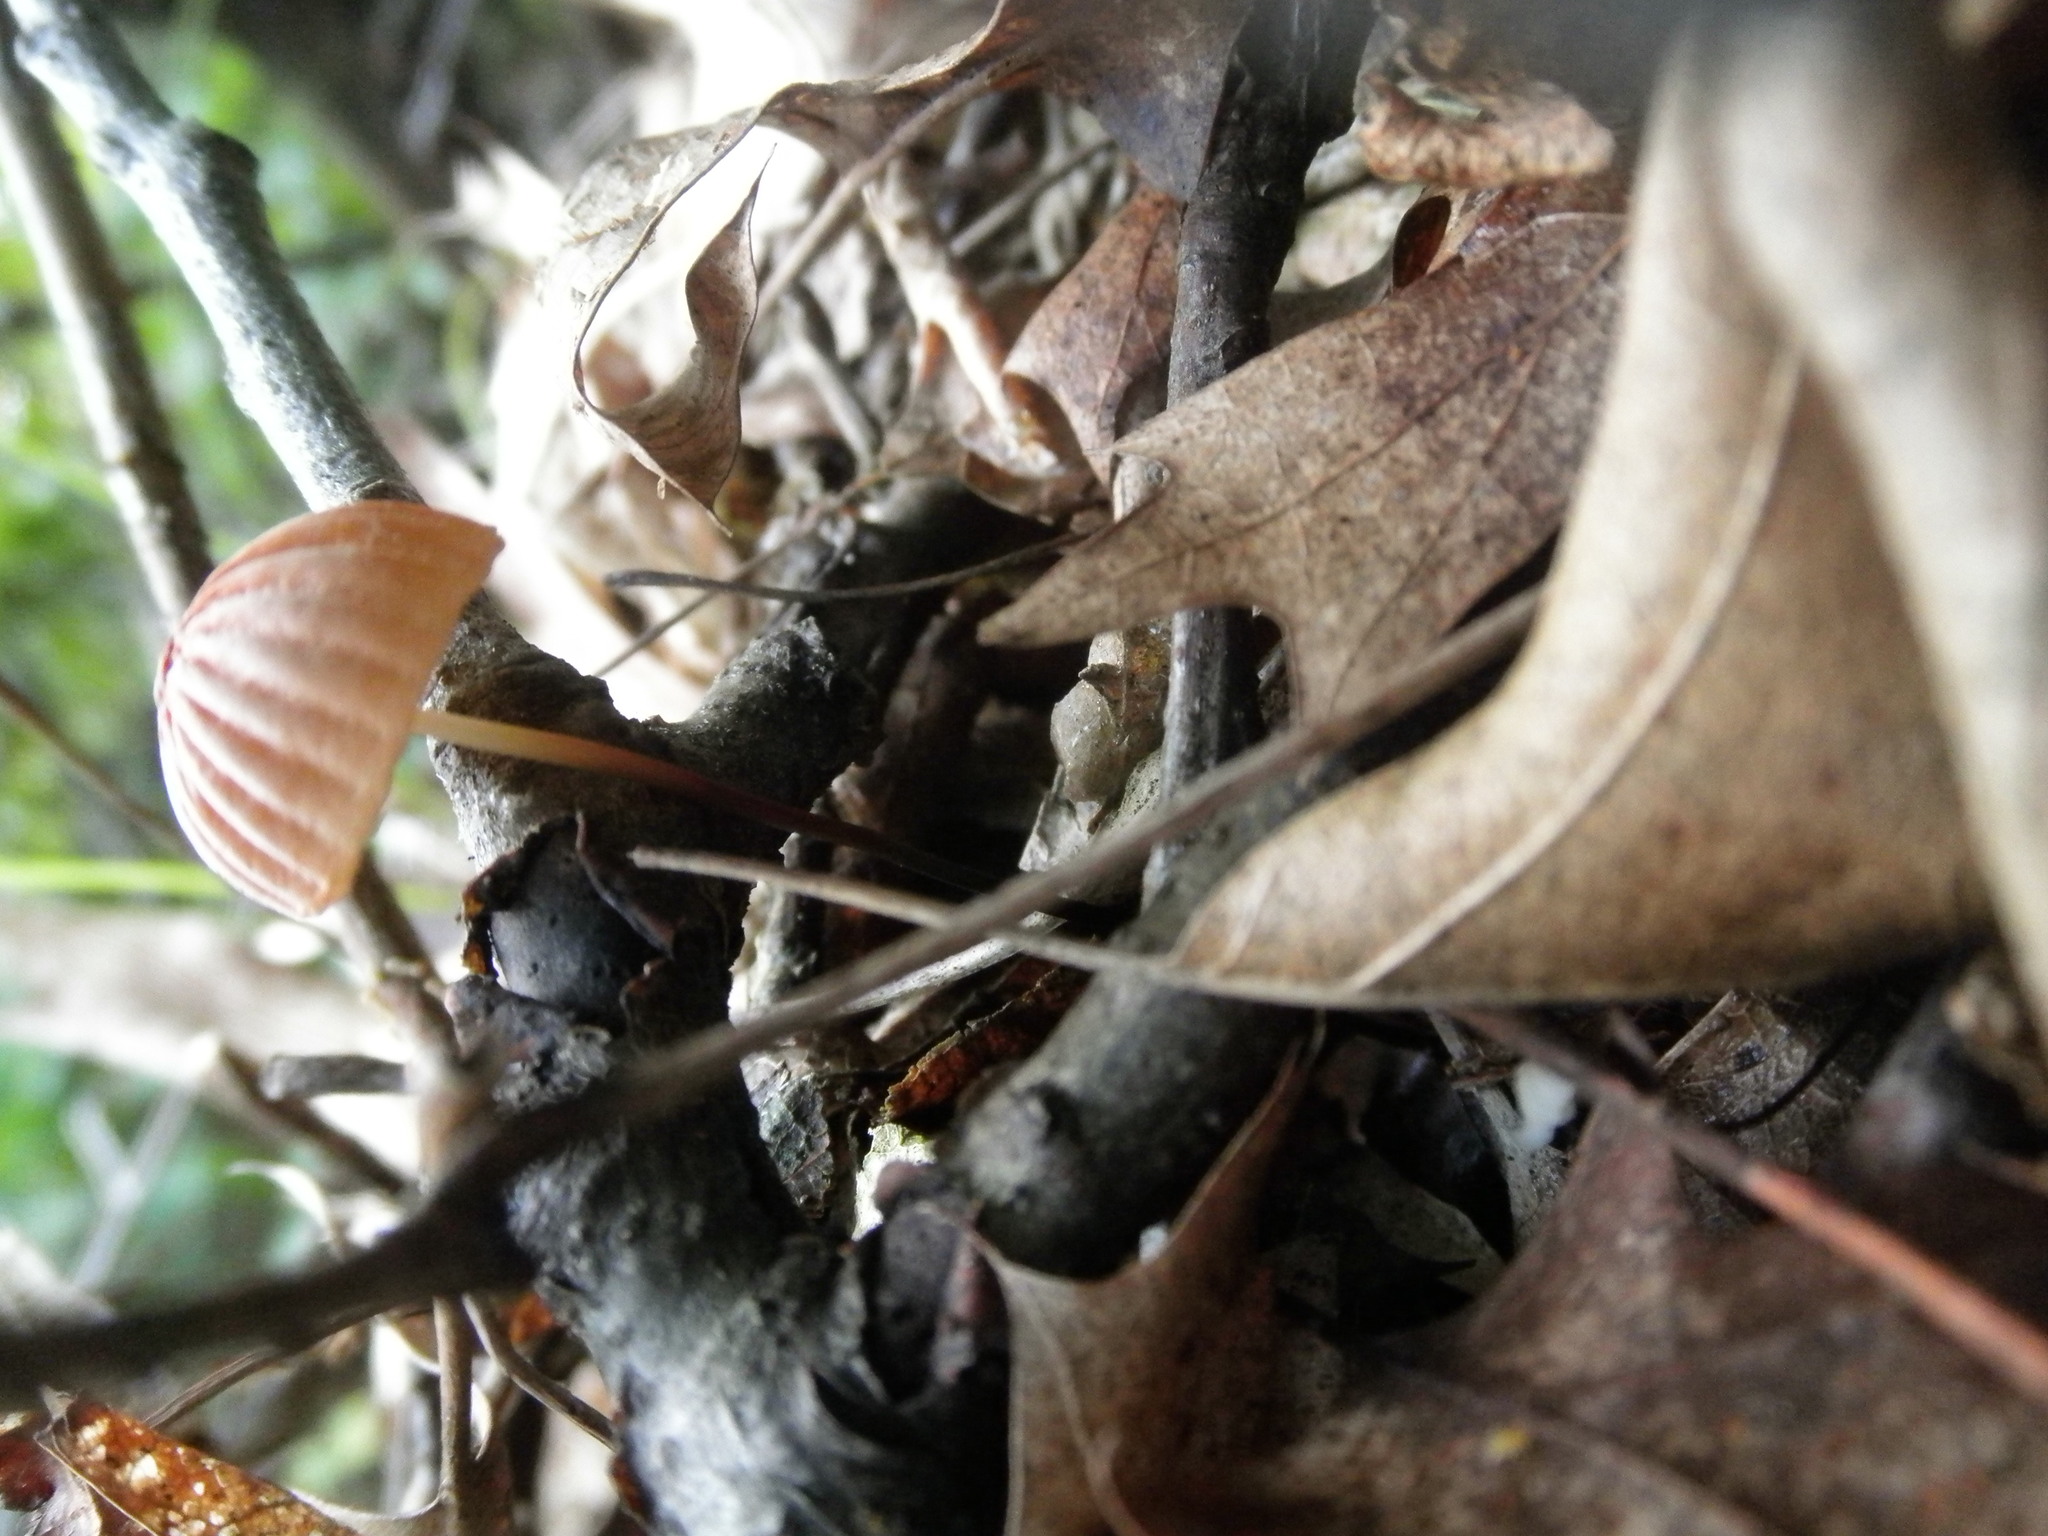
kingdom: Fungi
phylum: Basidiomycota
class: Agaricomycetes
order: Agaricales
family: Marasmiaceae
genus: Marasmius
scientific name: Marasmius siccus
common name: Orange pinwheel
